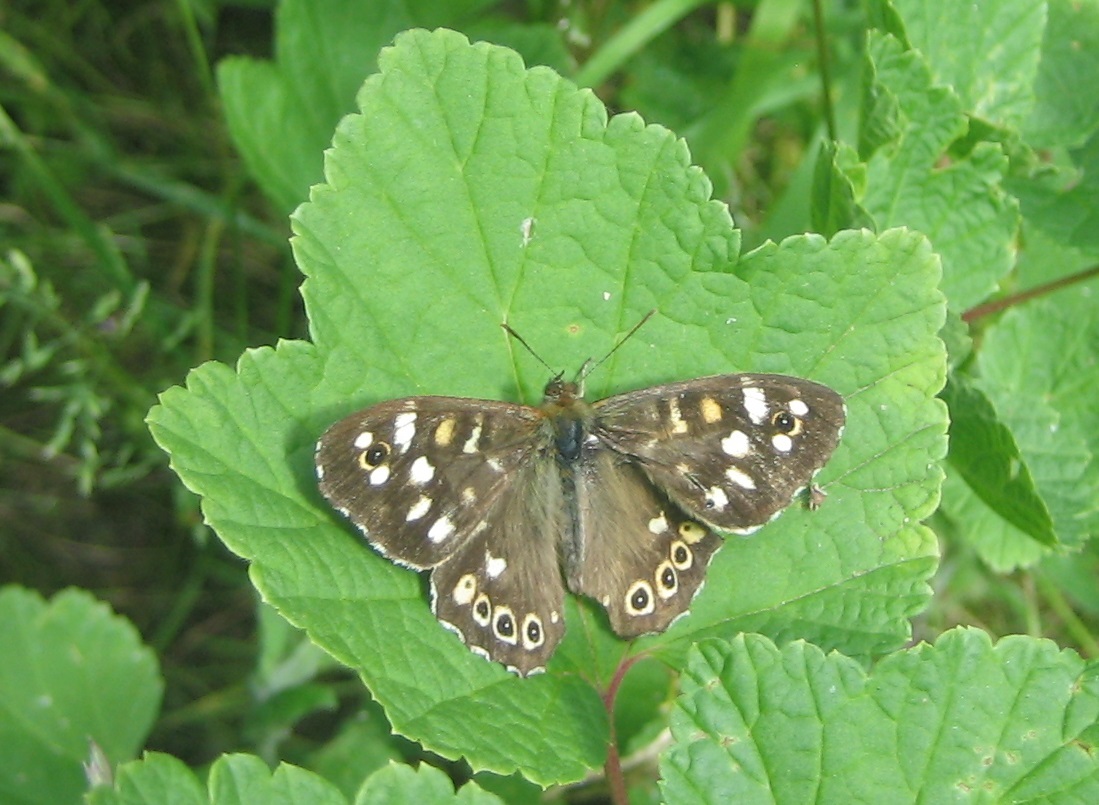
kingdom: Animalia
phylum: Arthropoda
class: Insecta
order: Lepidoptera
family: Nymphalidae
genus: Pararge
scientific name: Pararge aegeria
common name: Speckled wood
